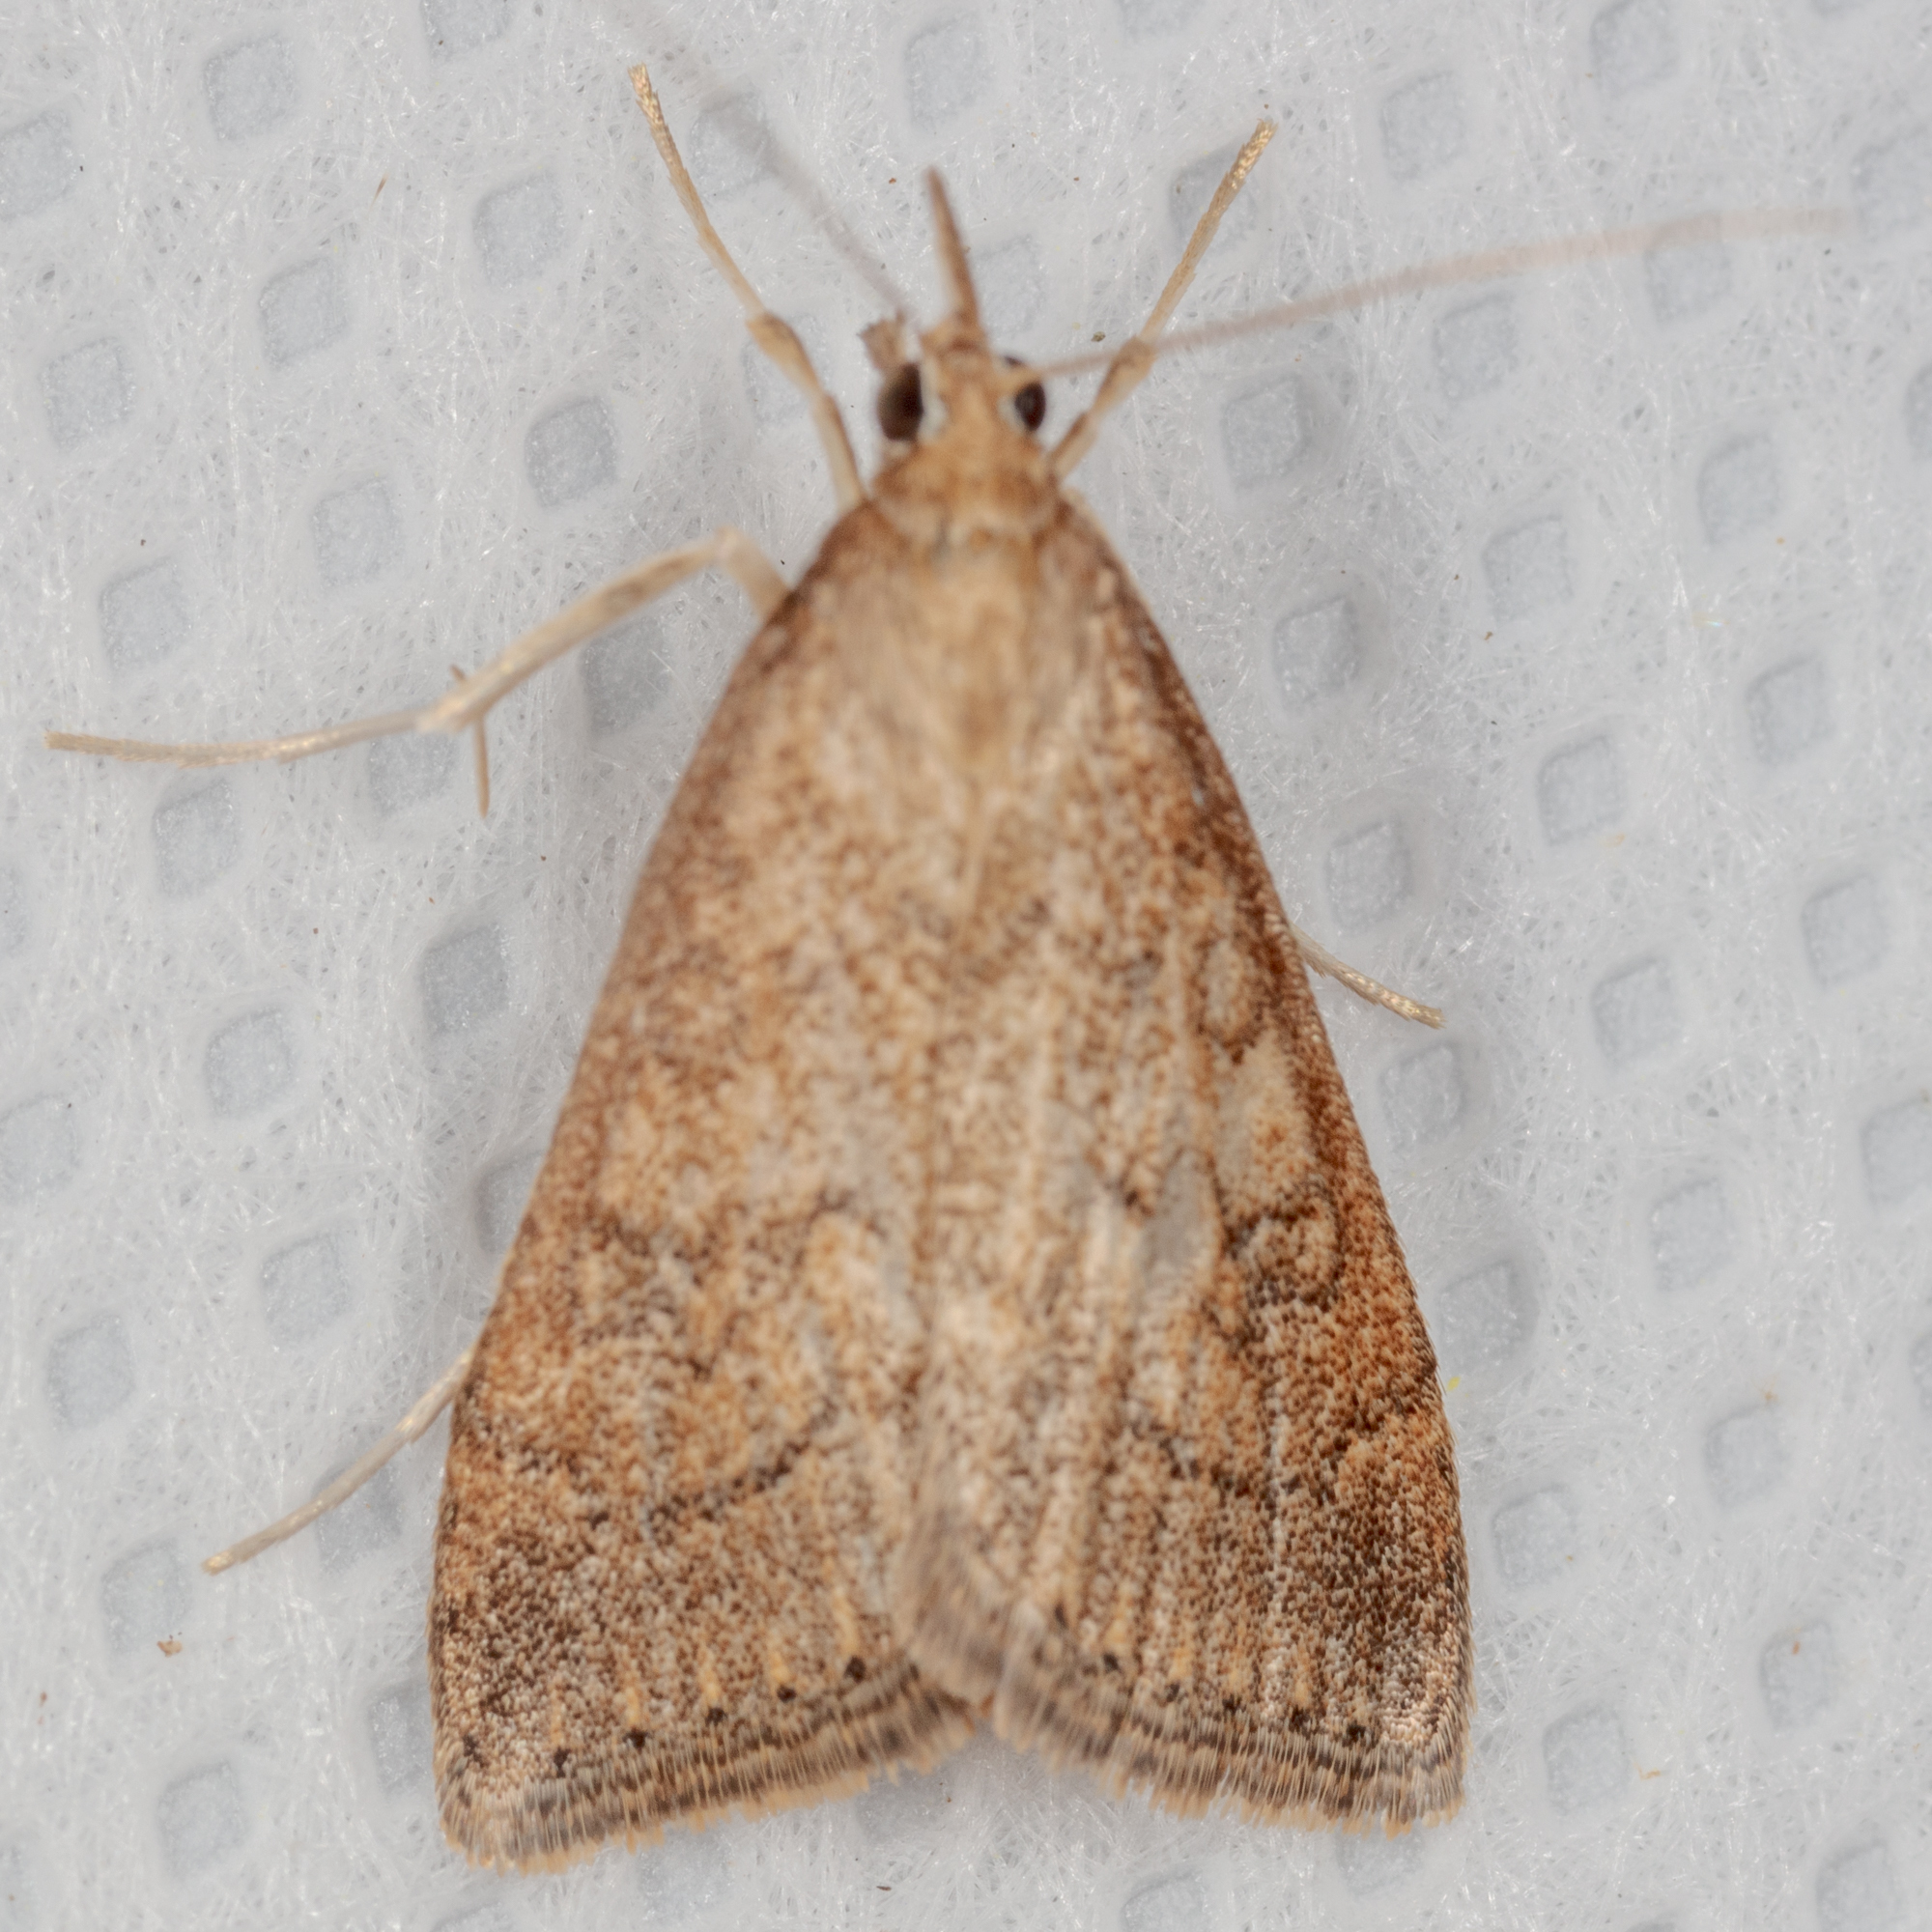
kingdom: Animalia
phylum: Arthropoda
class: Insecta
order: Lepidoptera
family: Crambidae
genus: Udea
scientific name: Udea rubigalis
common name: Celery leaftier moth
